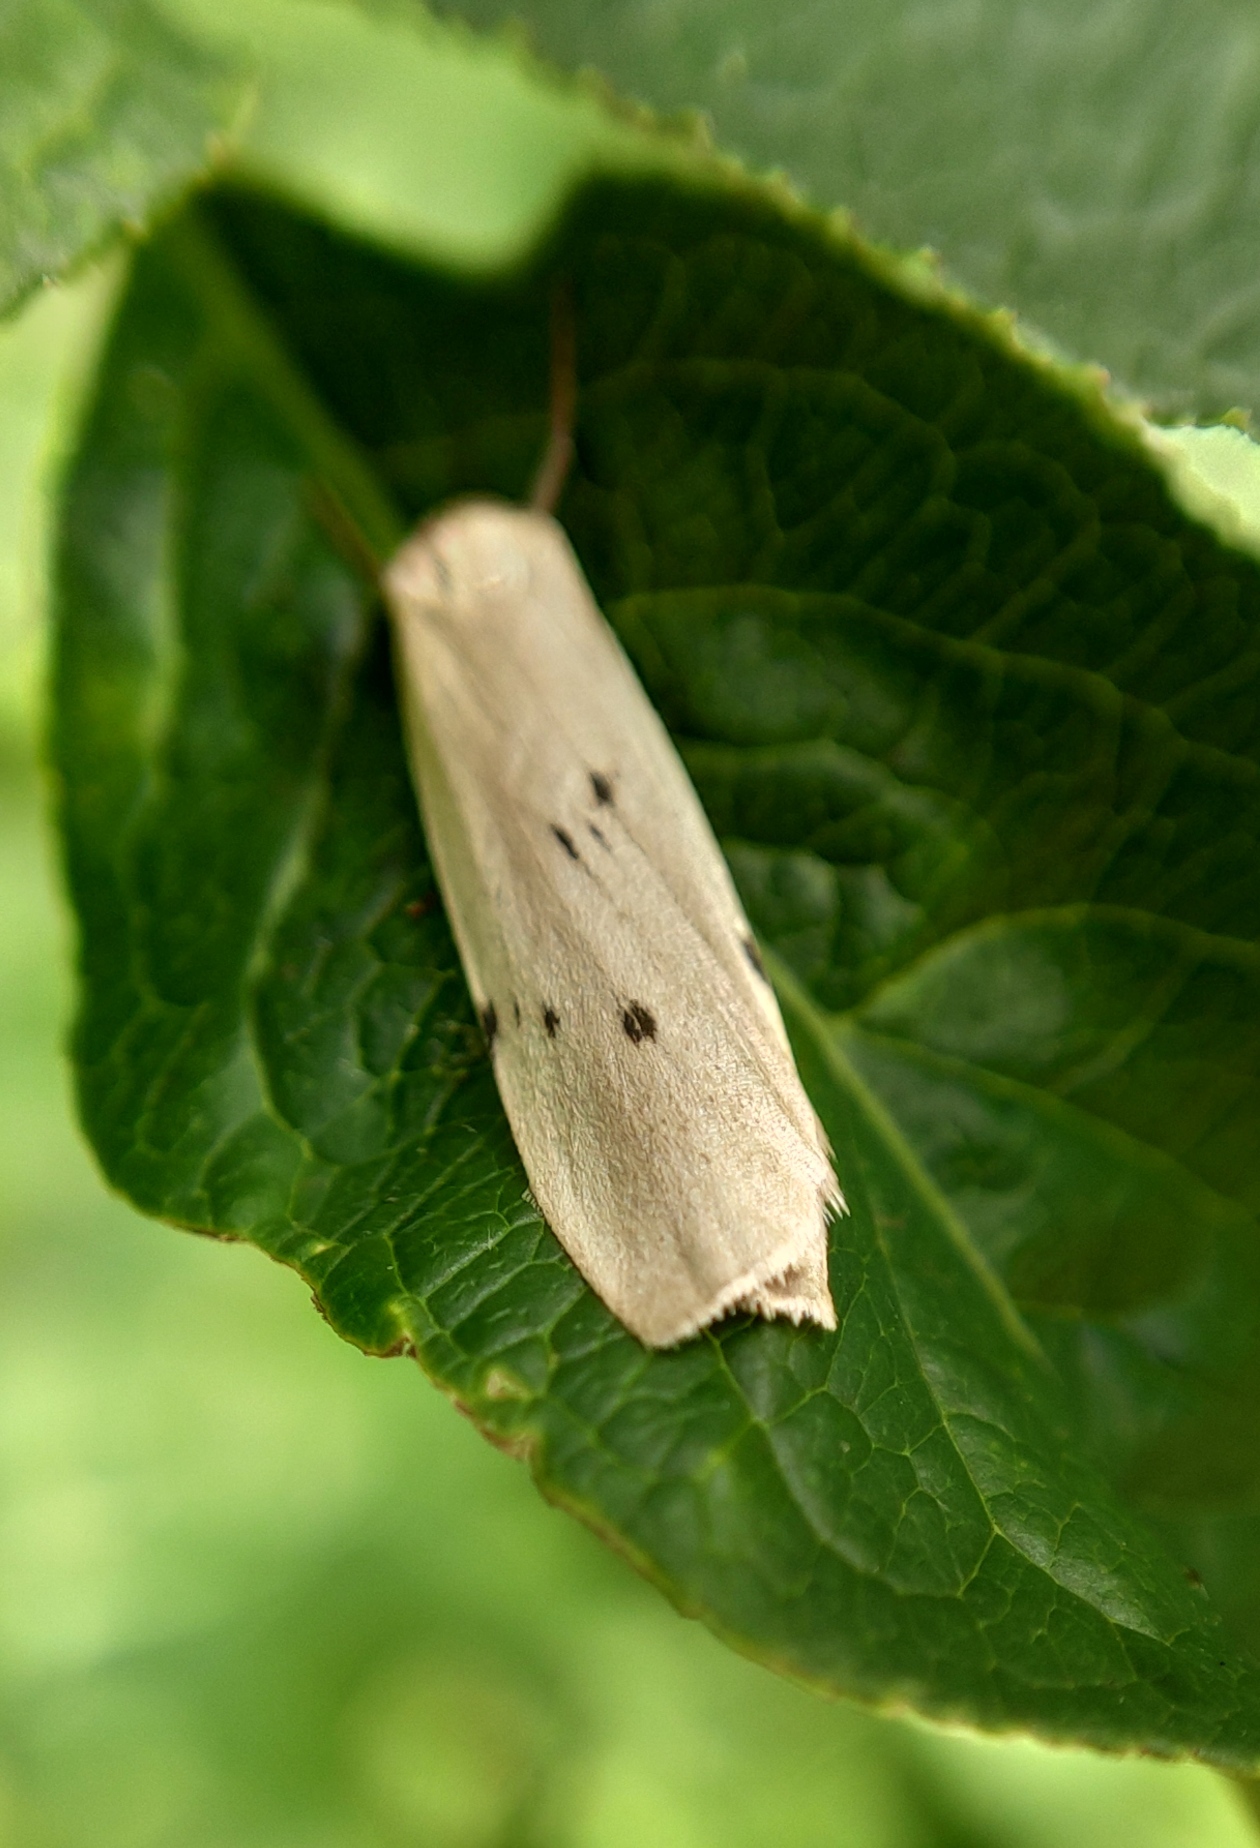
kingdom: Animalia
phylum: Arthropoda
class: Insecta
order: Lepidoptera
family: Erebidae
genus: Pelosia
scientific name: Pelosia muscerda
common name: Dotted footman
